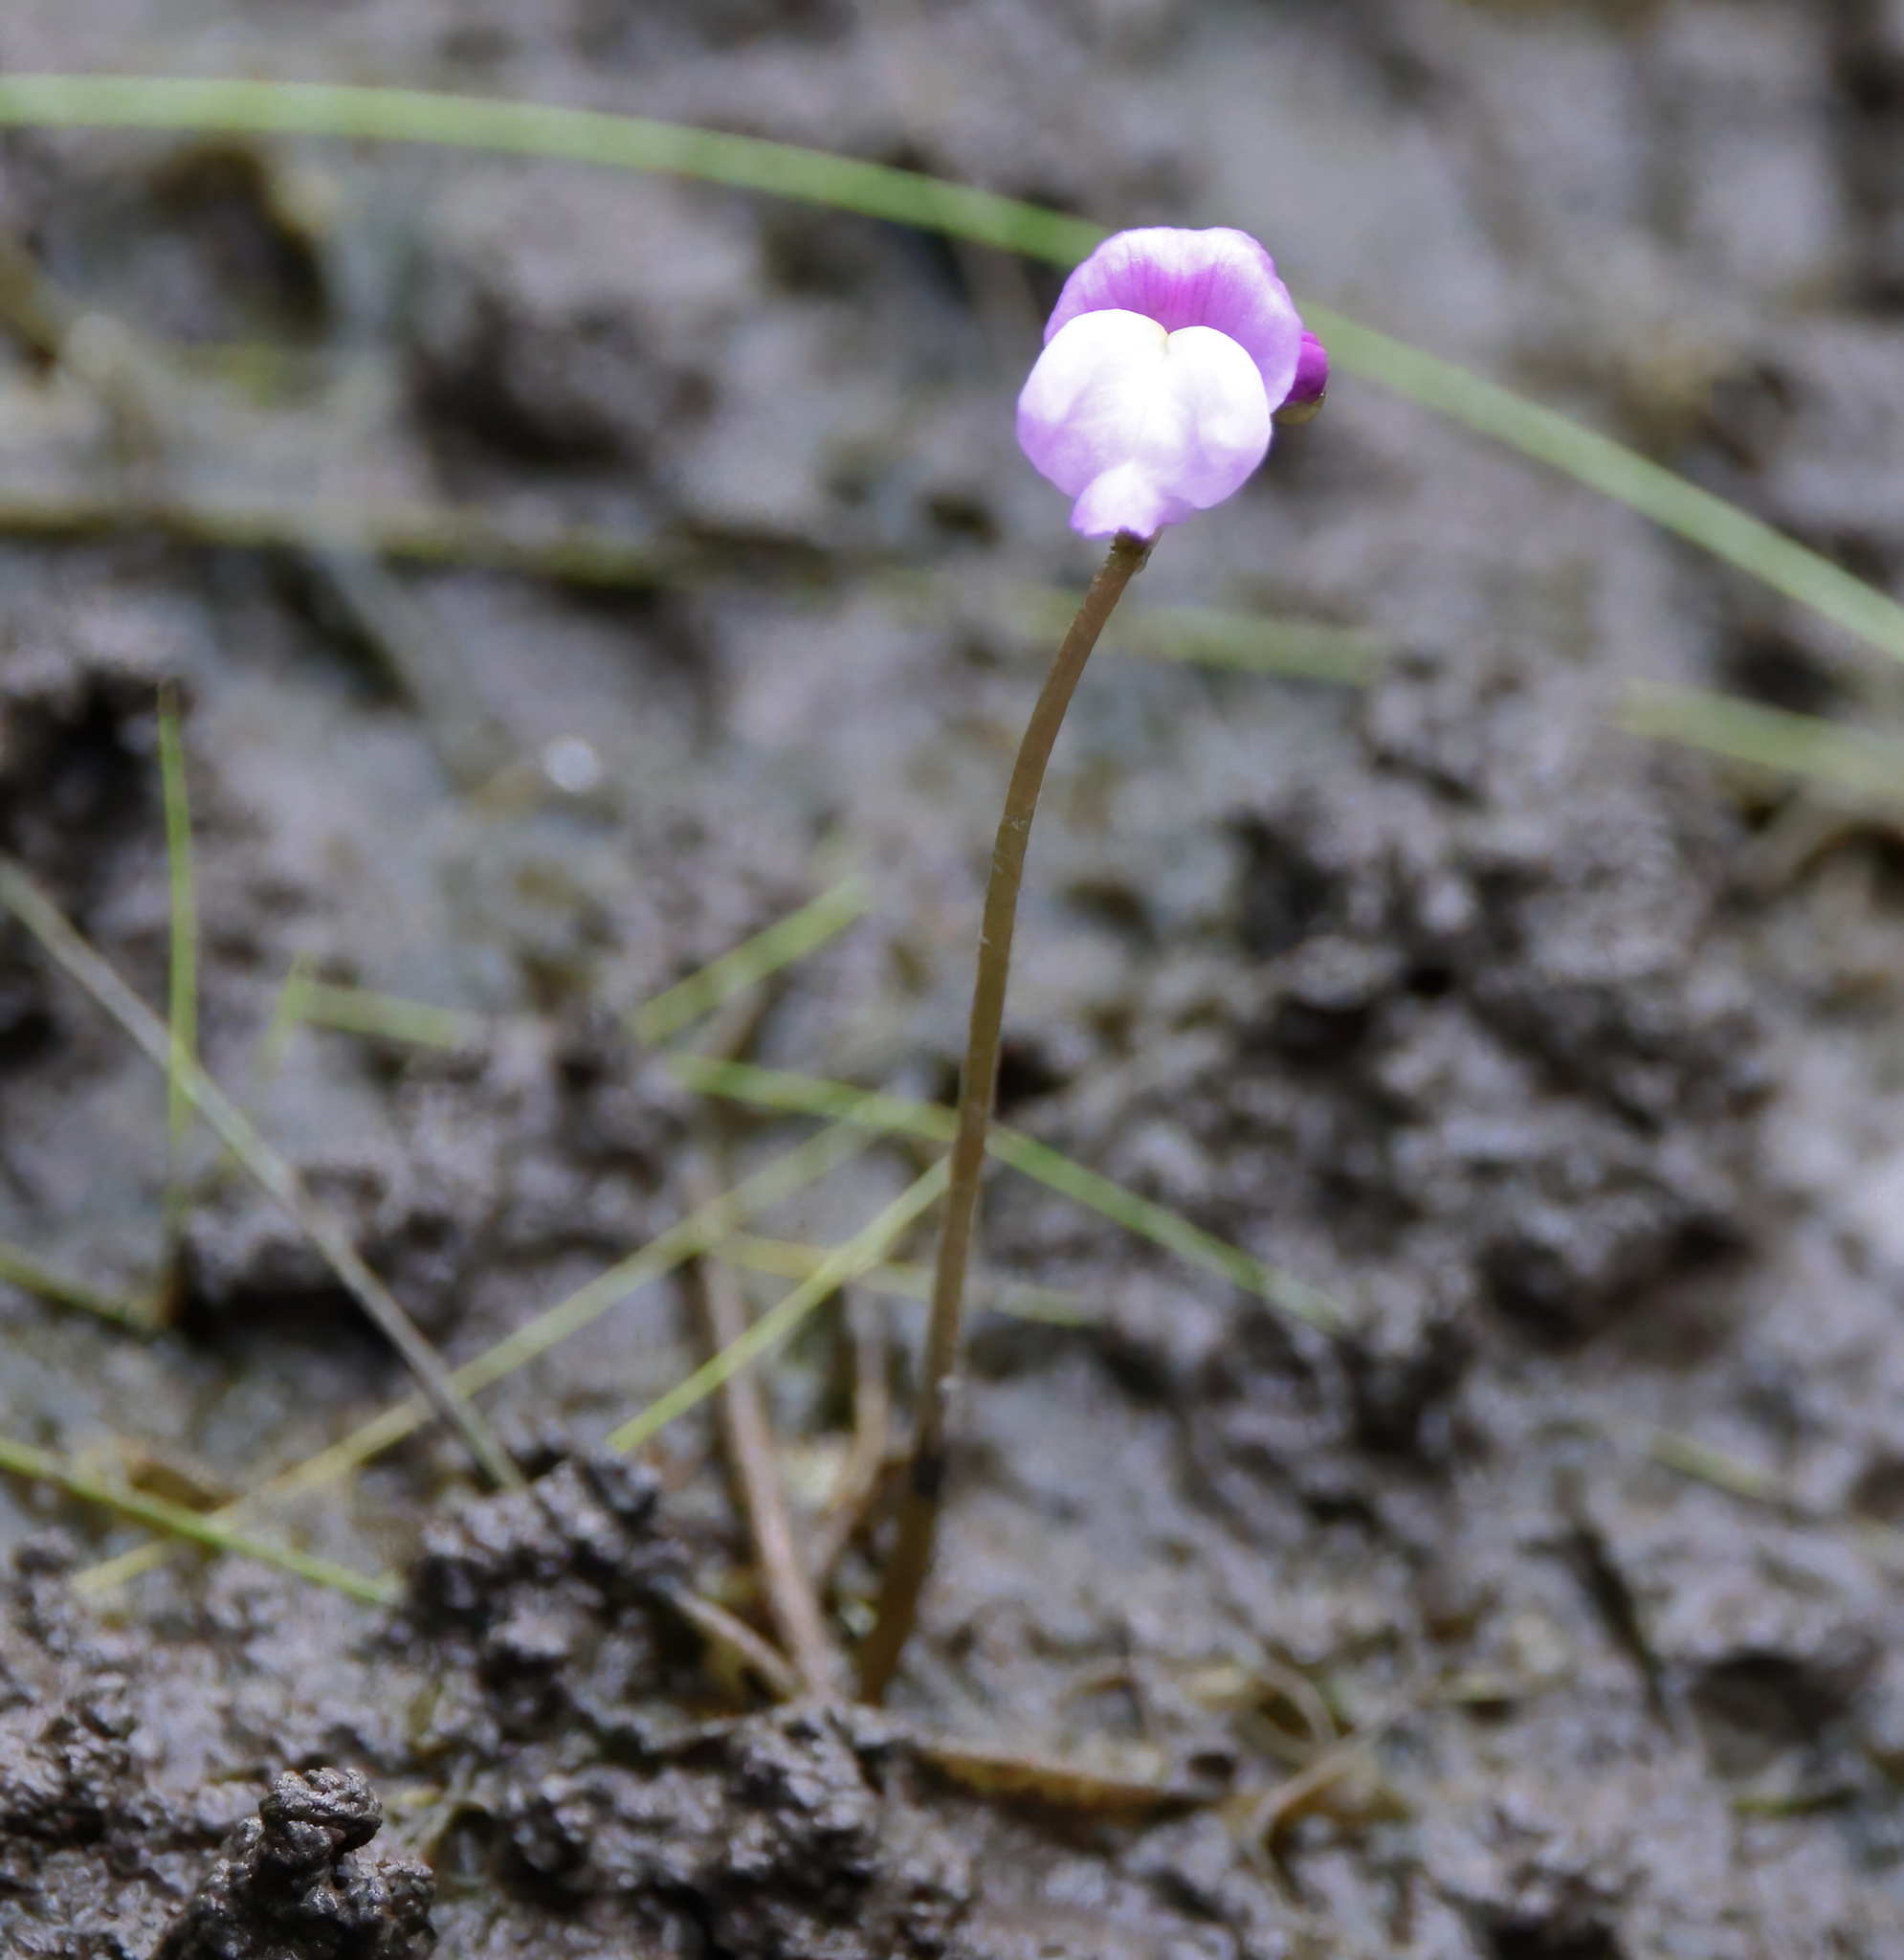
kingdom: Plantae
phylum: Tracheophyta
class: Magnoliopsida
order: Lamiales
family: Lentibulariaceae
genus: Utricularia
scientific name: Utricularia purpurea
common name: Eastern purple bladderwort
